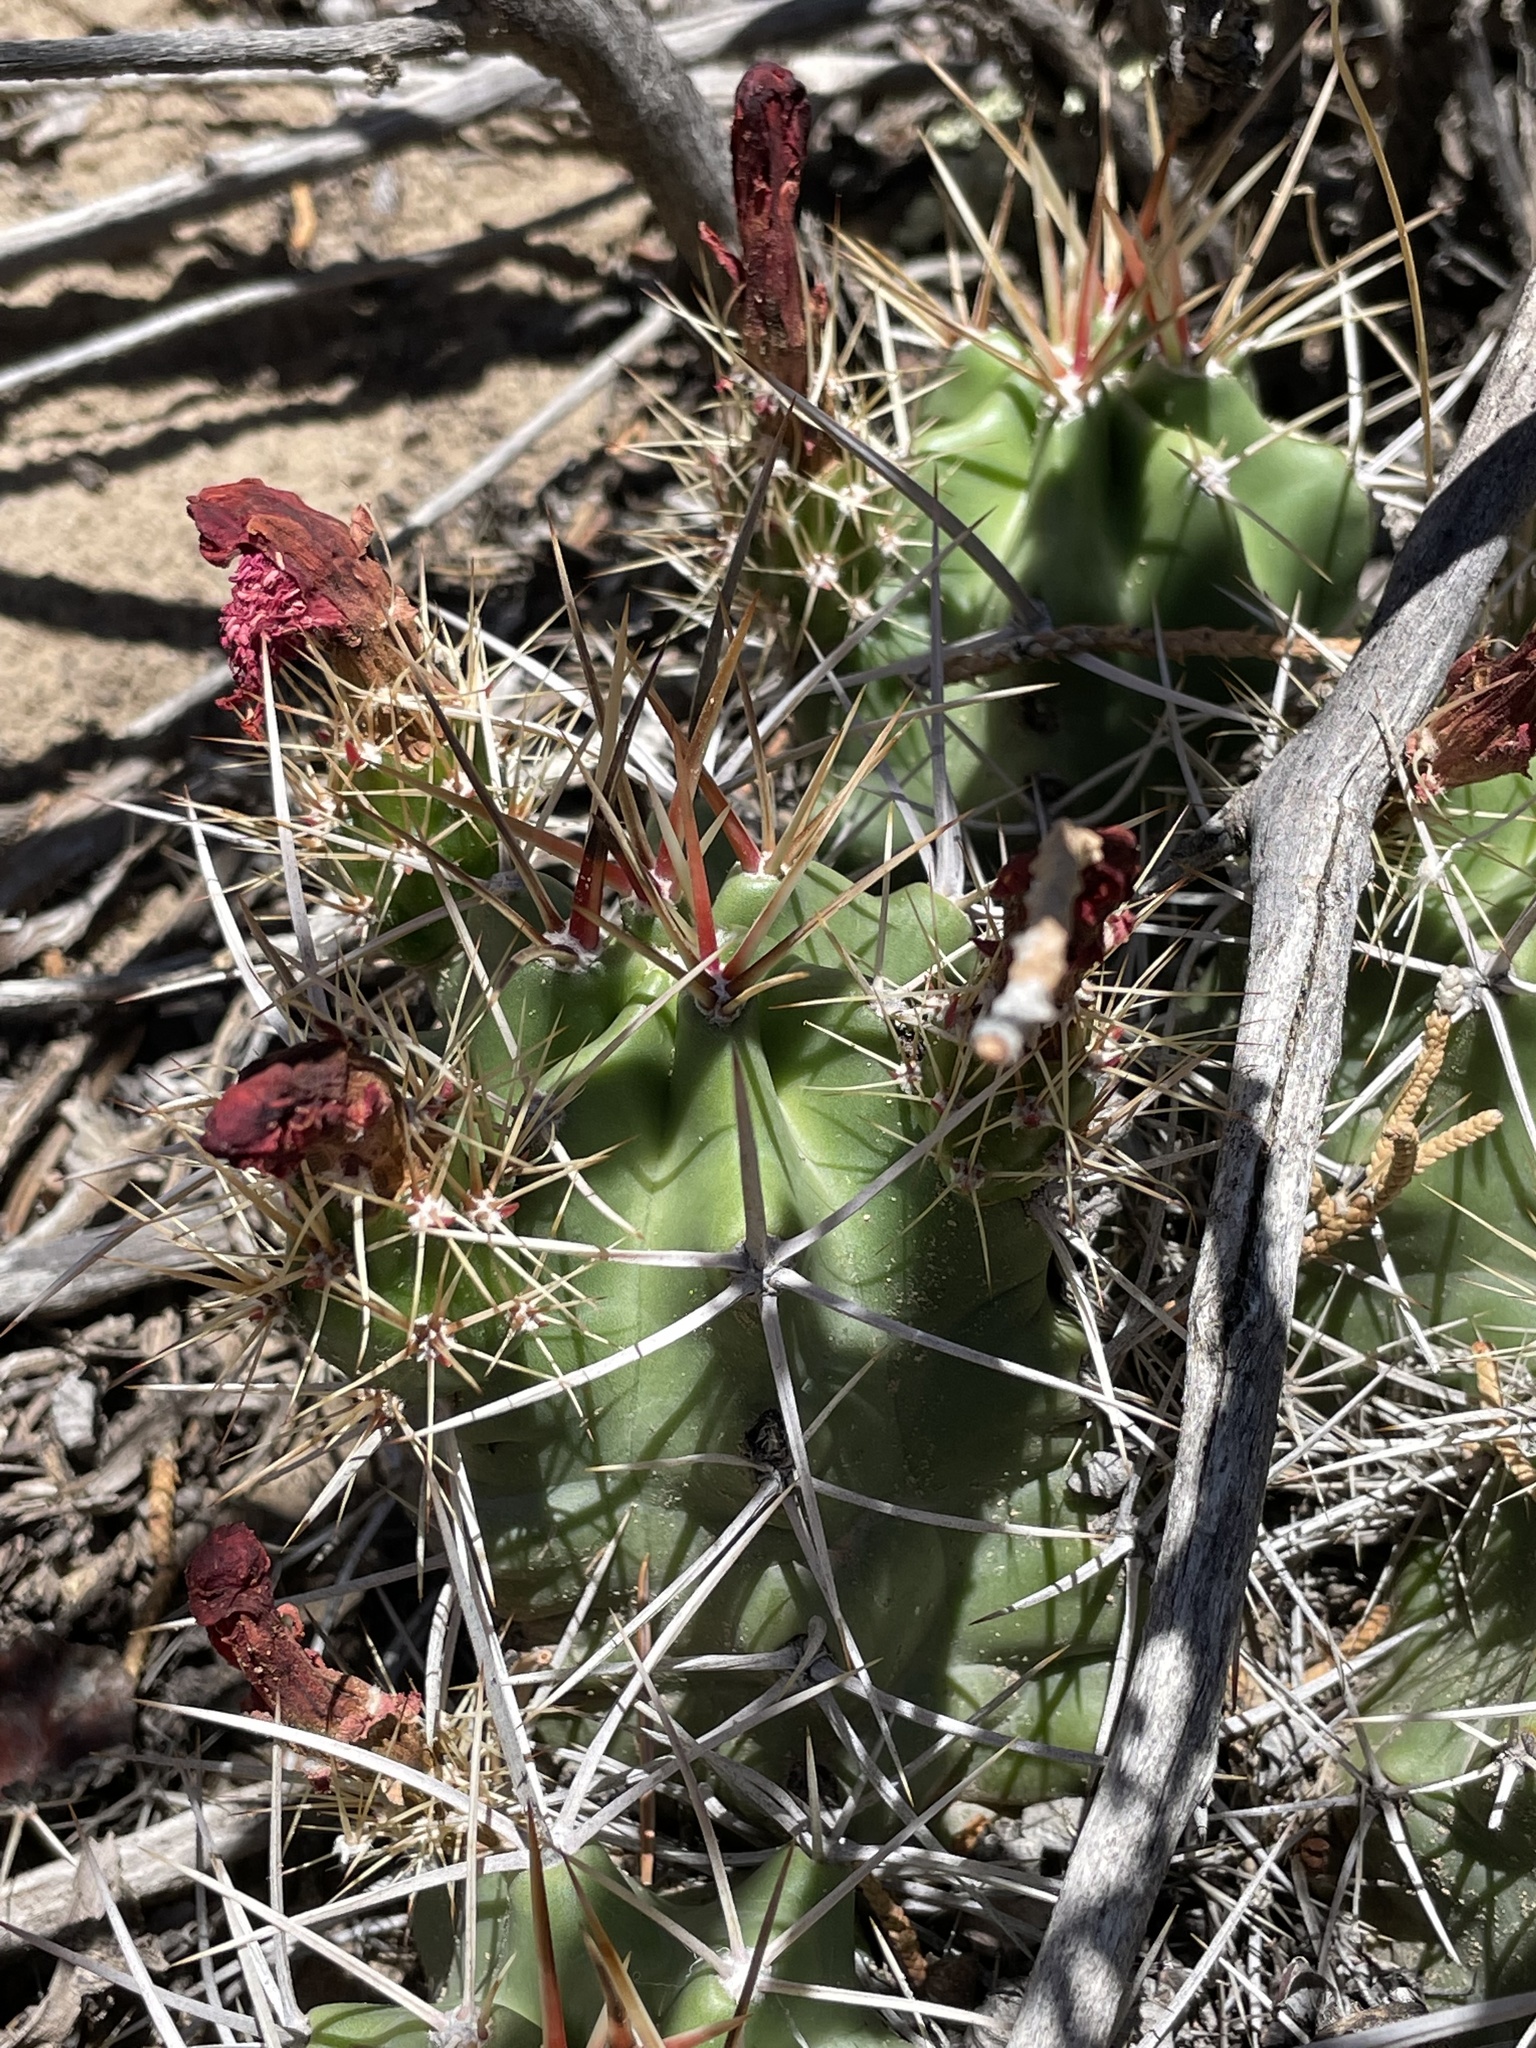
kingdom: Plantae
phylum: Tracheophyta
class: Magnoliopsida
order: Caryophyllales
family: Cactaceae
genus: Echinocereus
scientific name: Echinocereus triglochidiatus
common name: Claretcup hedgehog
